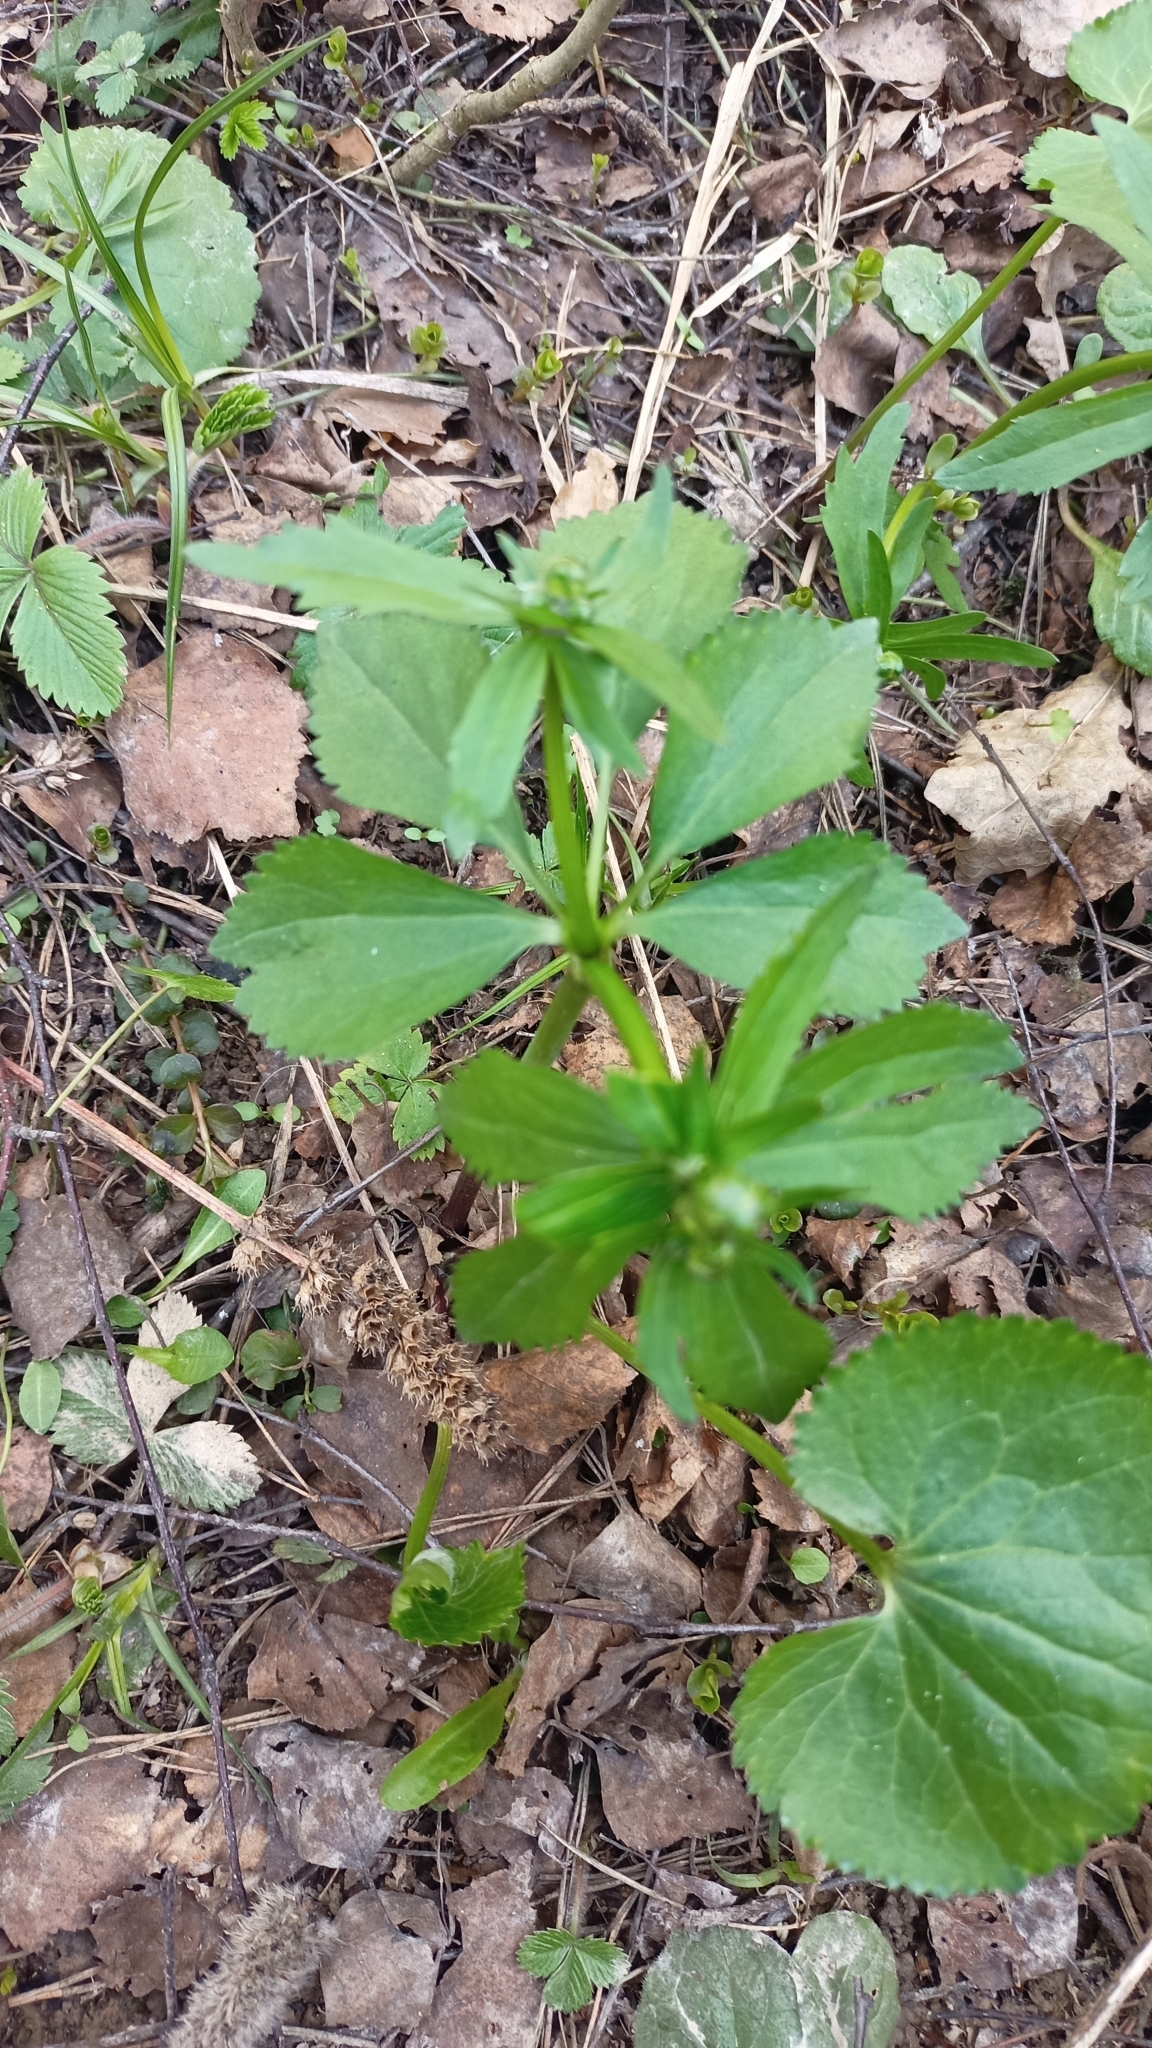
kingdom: Plantae
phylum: Tracheophyta
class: Magnoliopsida
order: Ranunculales
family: Ranunculaceae
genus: Ranunculus
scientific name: Ranunculus cassubicus
